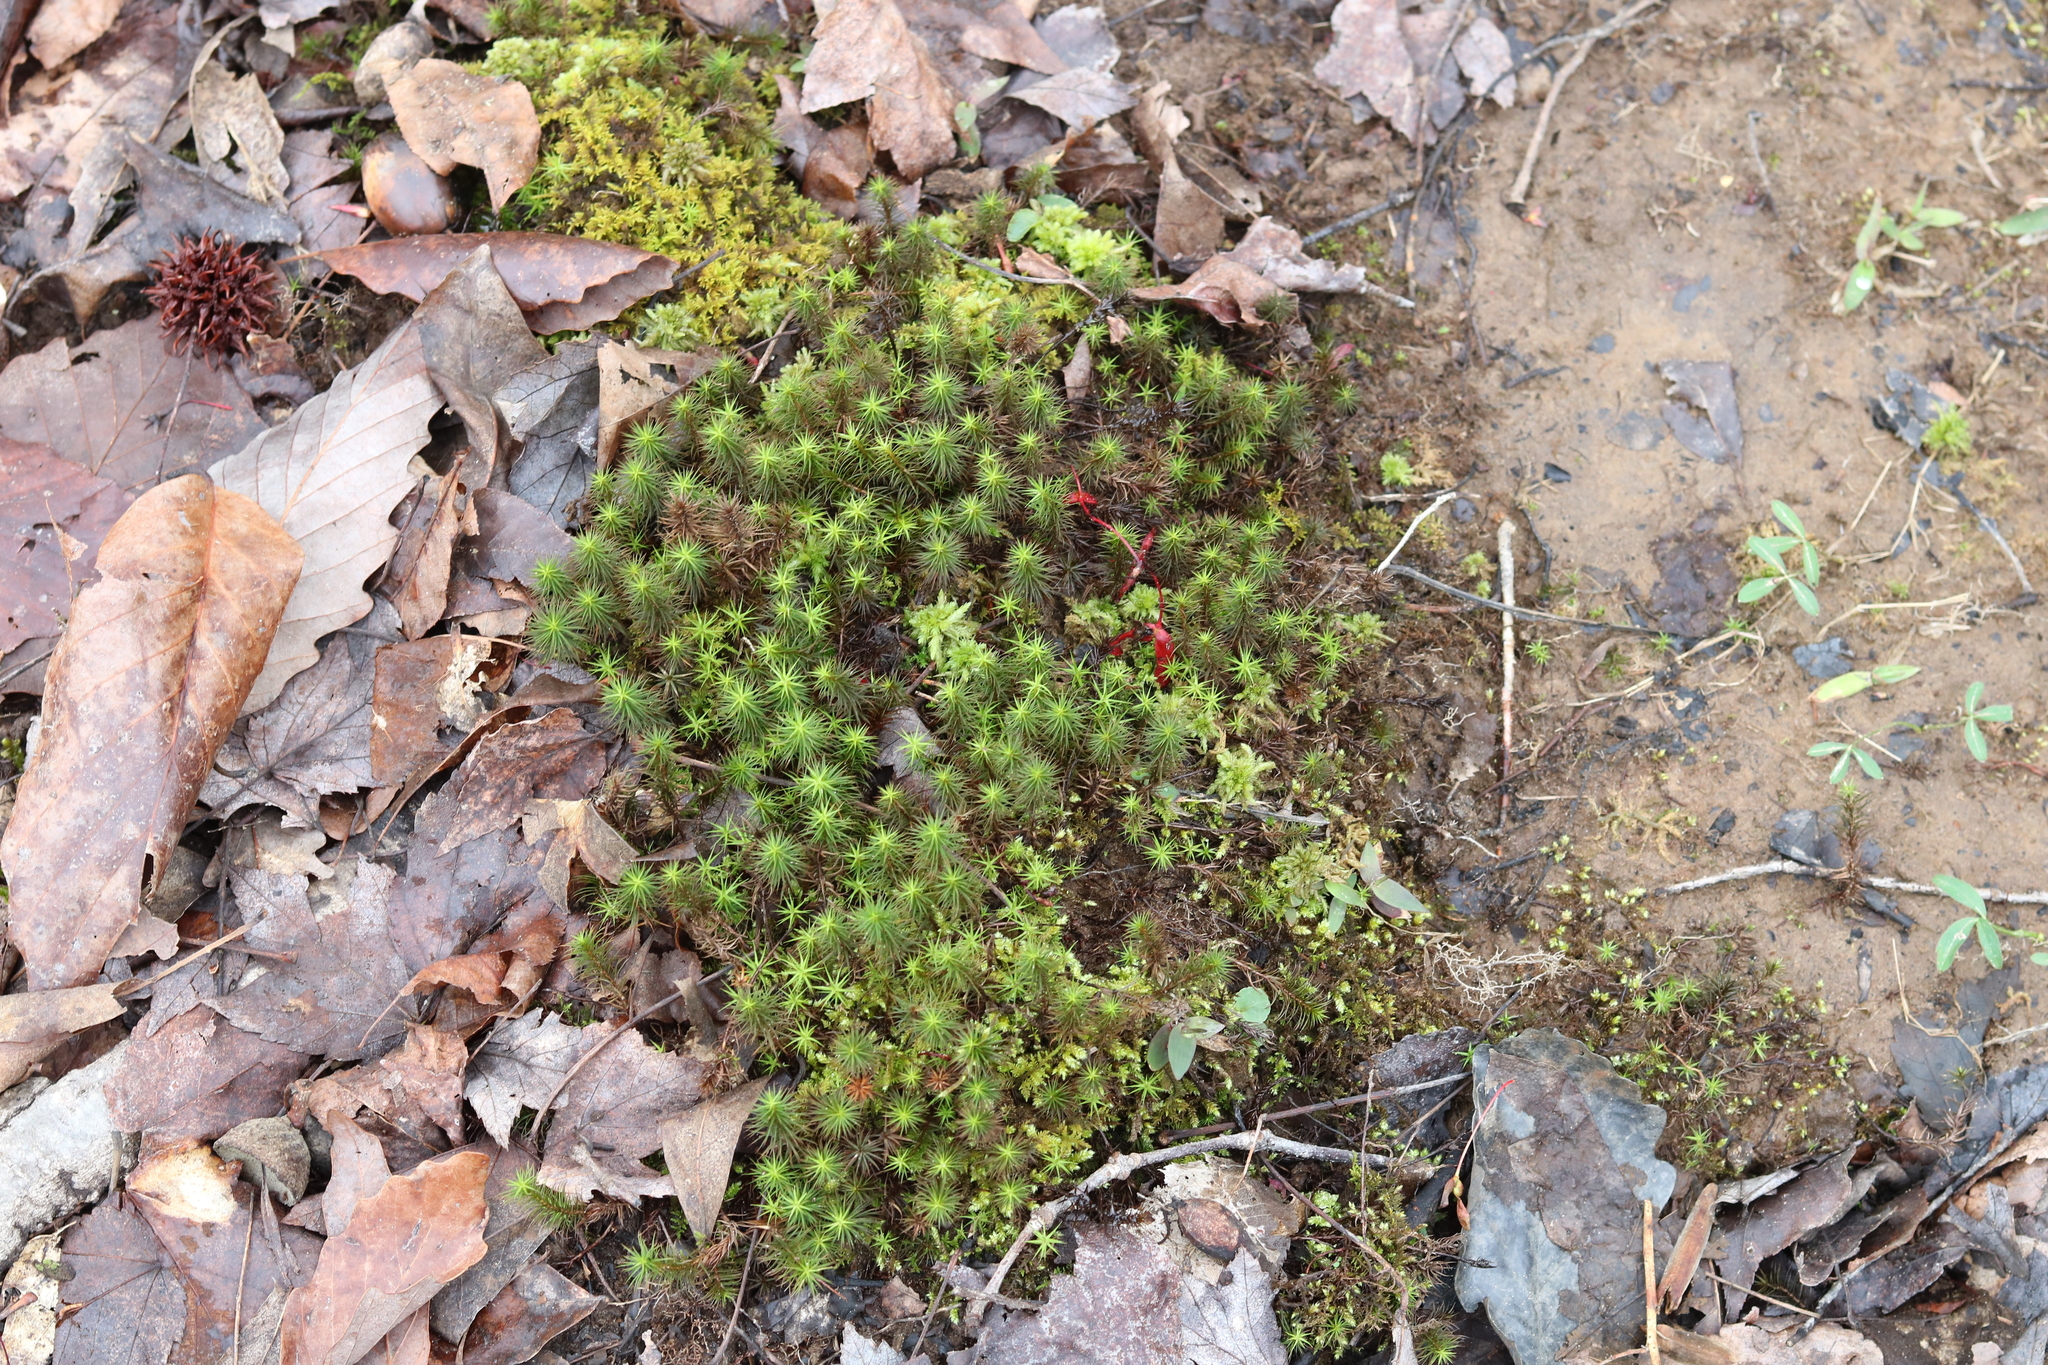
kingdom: Plantae
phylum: Bryophyta
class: Polytrichopsida
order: Polytrichales
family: Polytrichaceae
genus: Polytrichum
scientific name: Polytrichum juniperinum
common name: Juniper haircap moss
